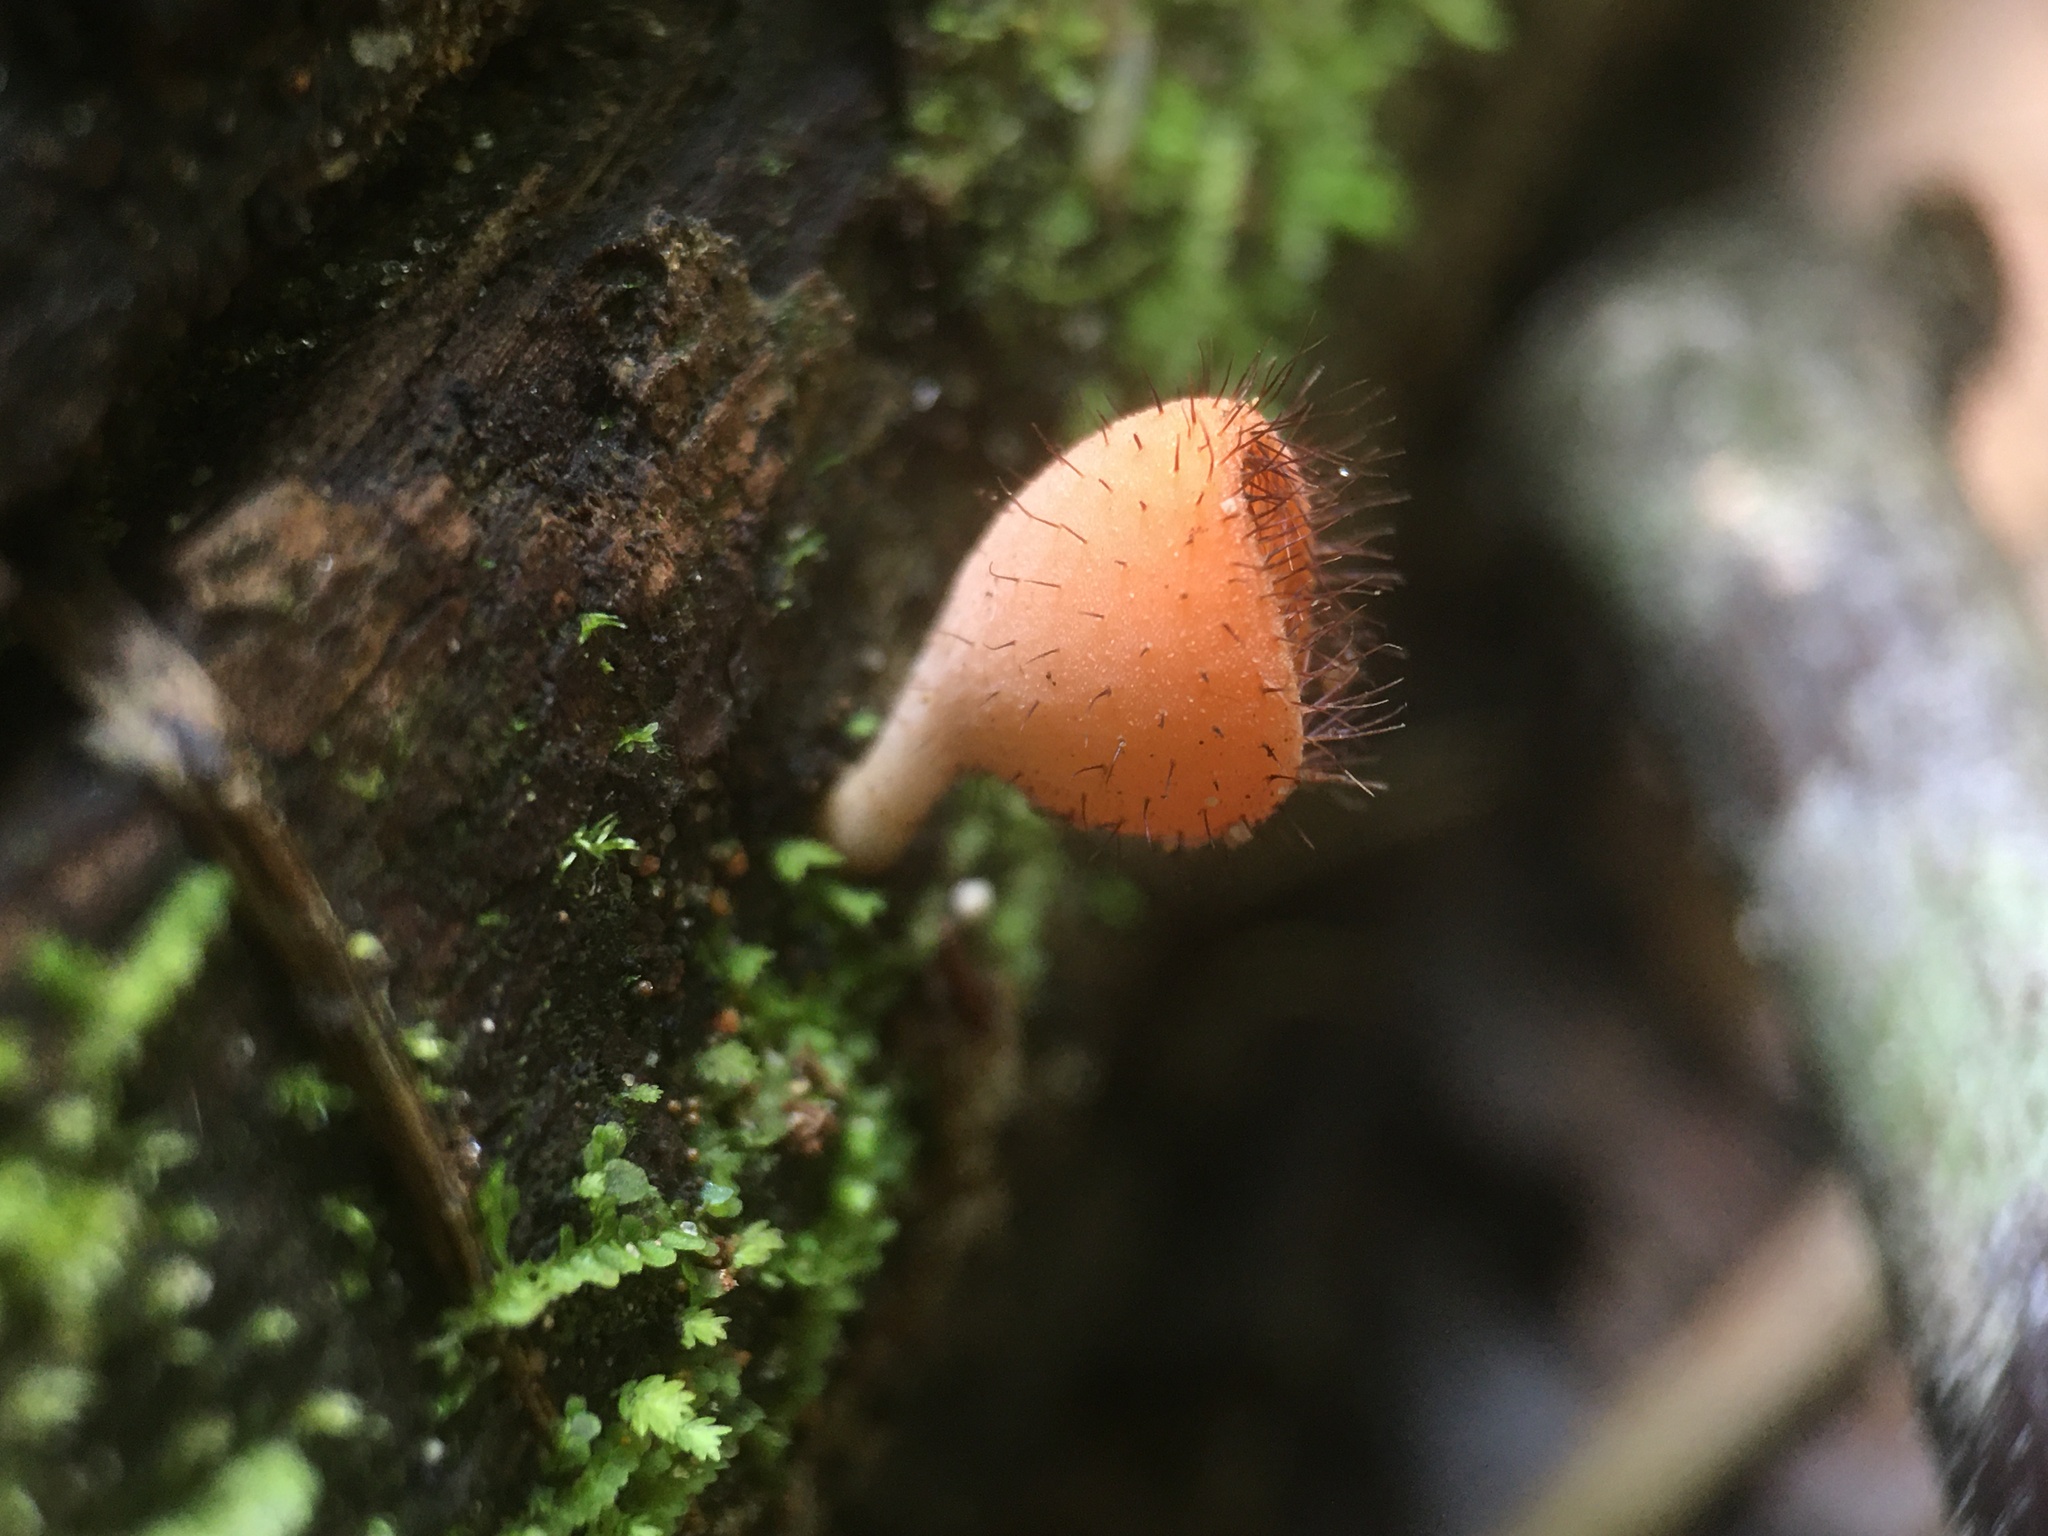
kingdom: Fungi
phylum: Ascomycota
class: Pezizomycetes
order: Pezizales
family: Sarcoscyphaceae
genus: Cookeina
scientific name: Cookeina tricholoma
